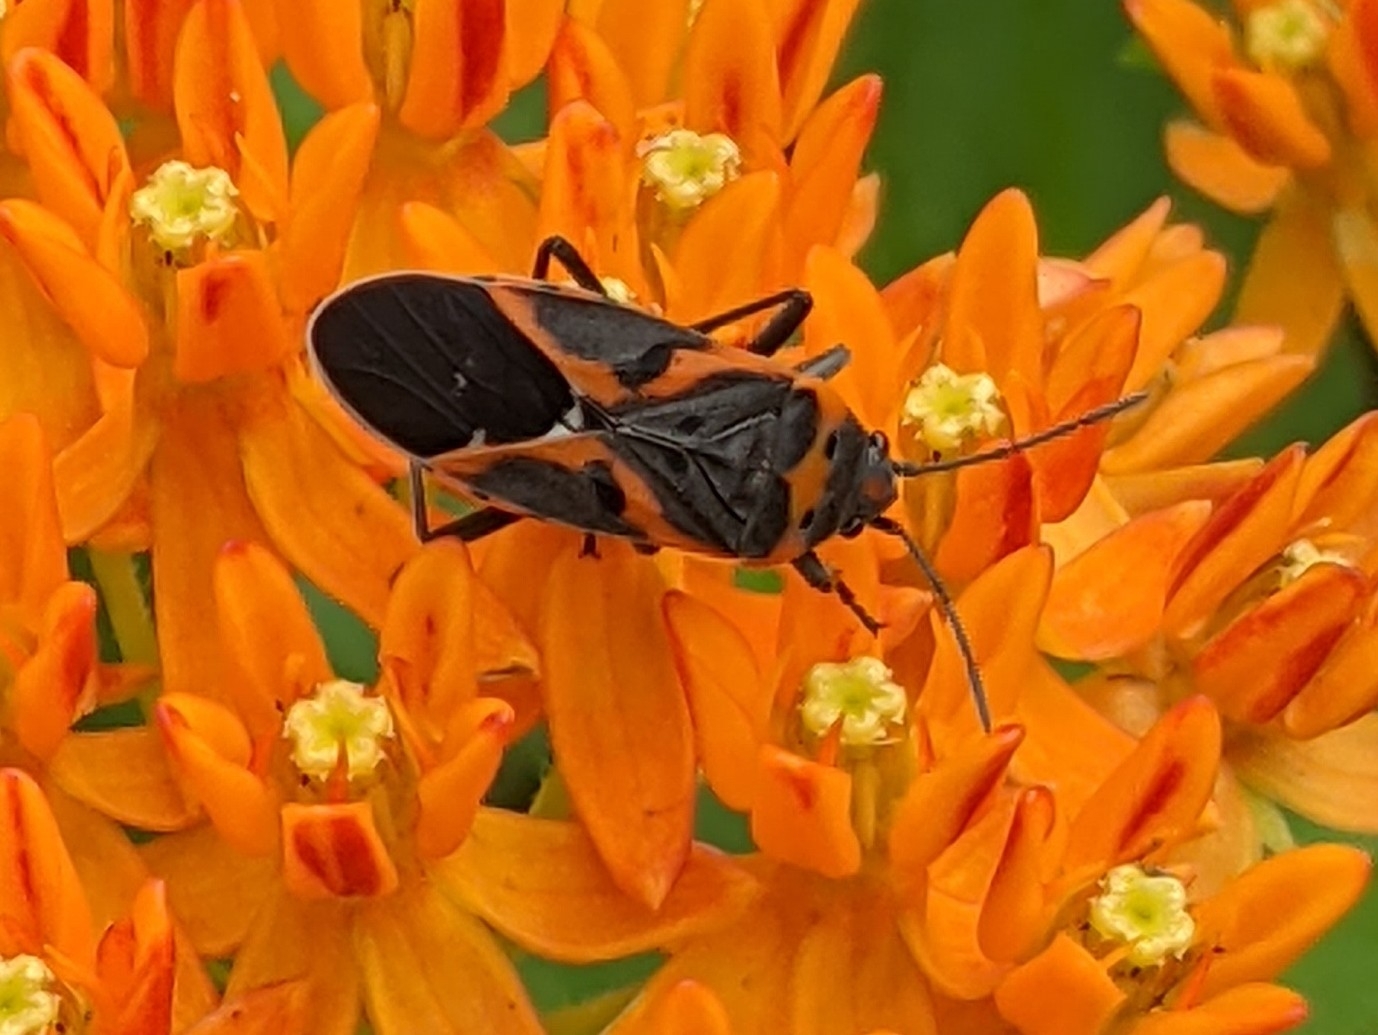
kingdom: Animalia
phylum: Arthropoda
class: Insecta
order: Hemiptera
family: Lygaeidae
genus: Lygaeus
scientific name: Lygaeus kalmii
